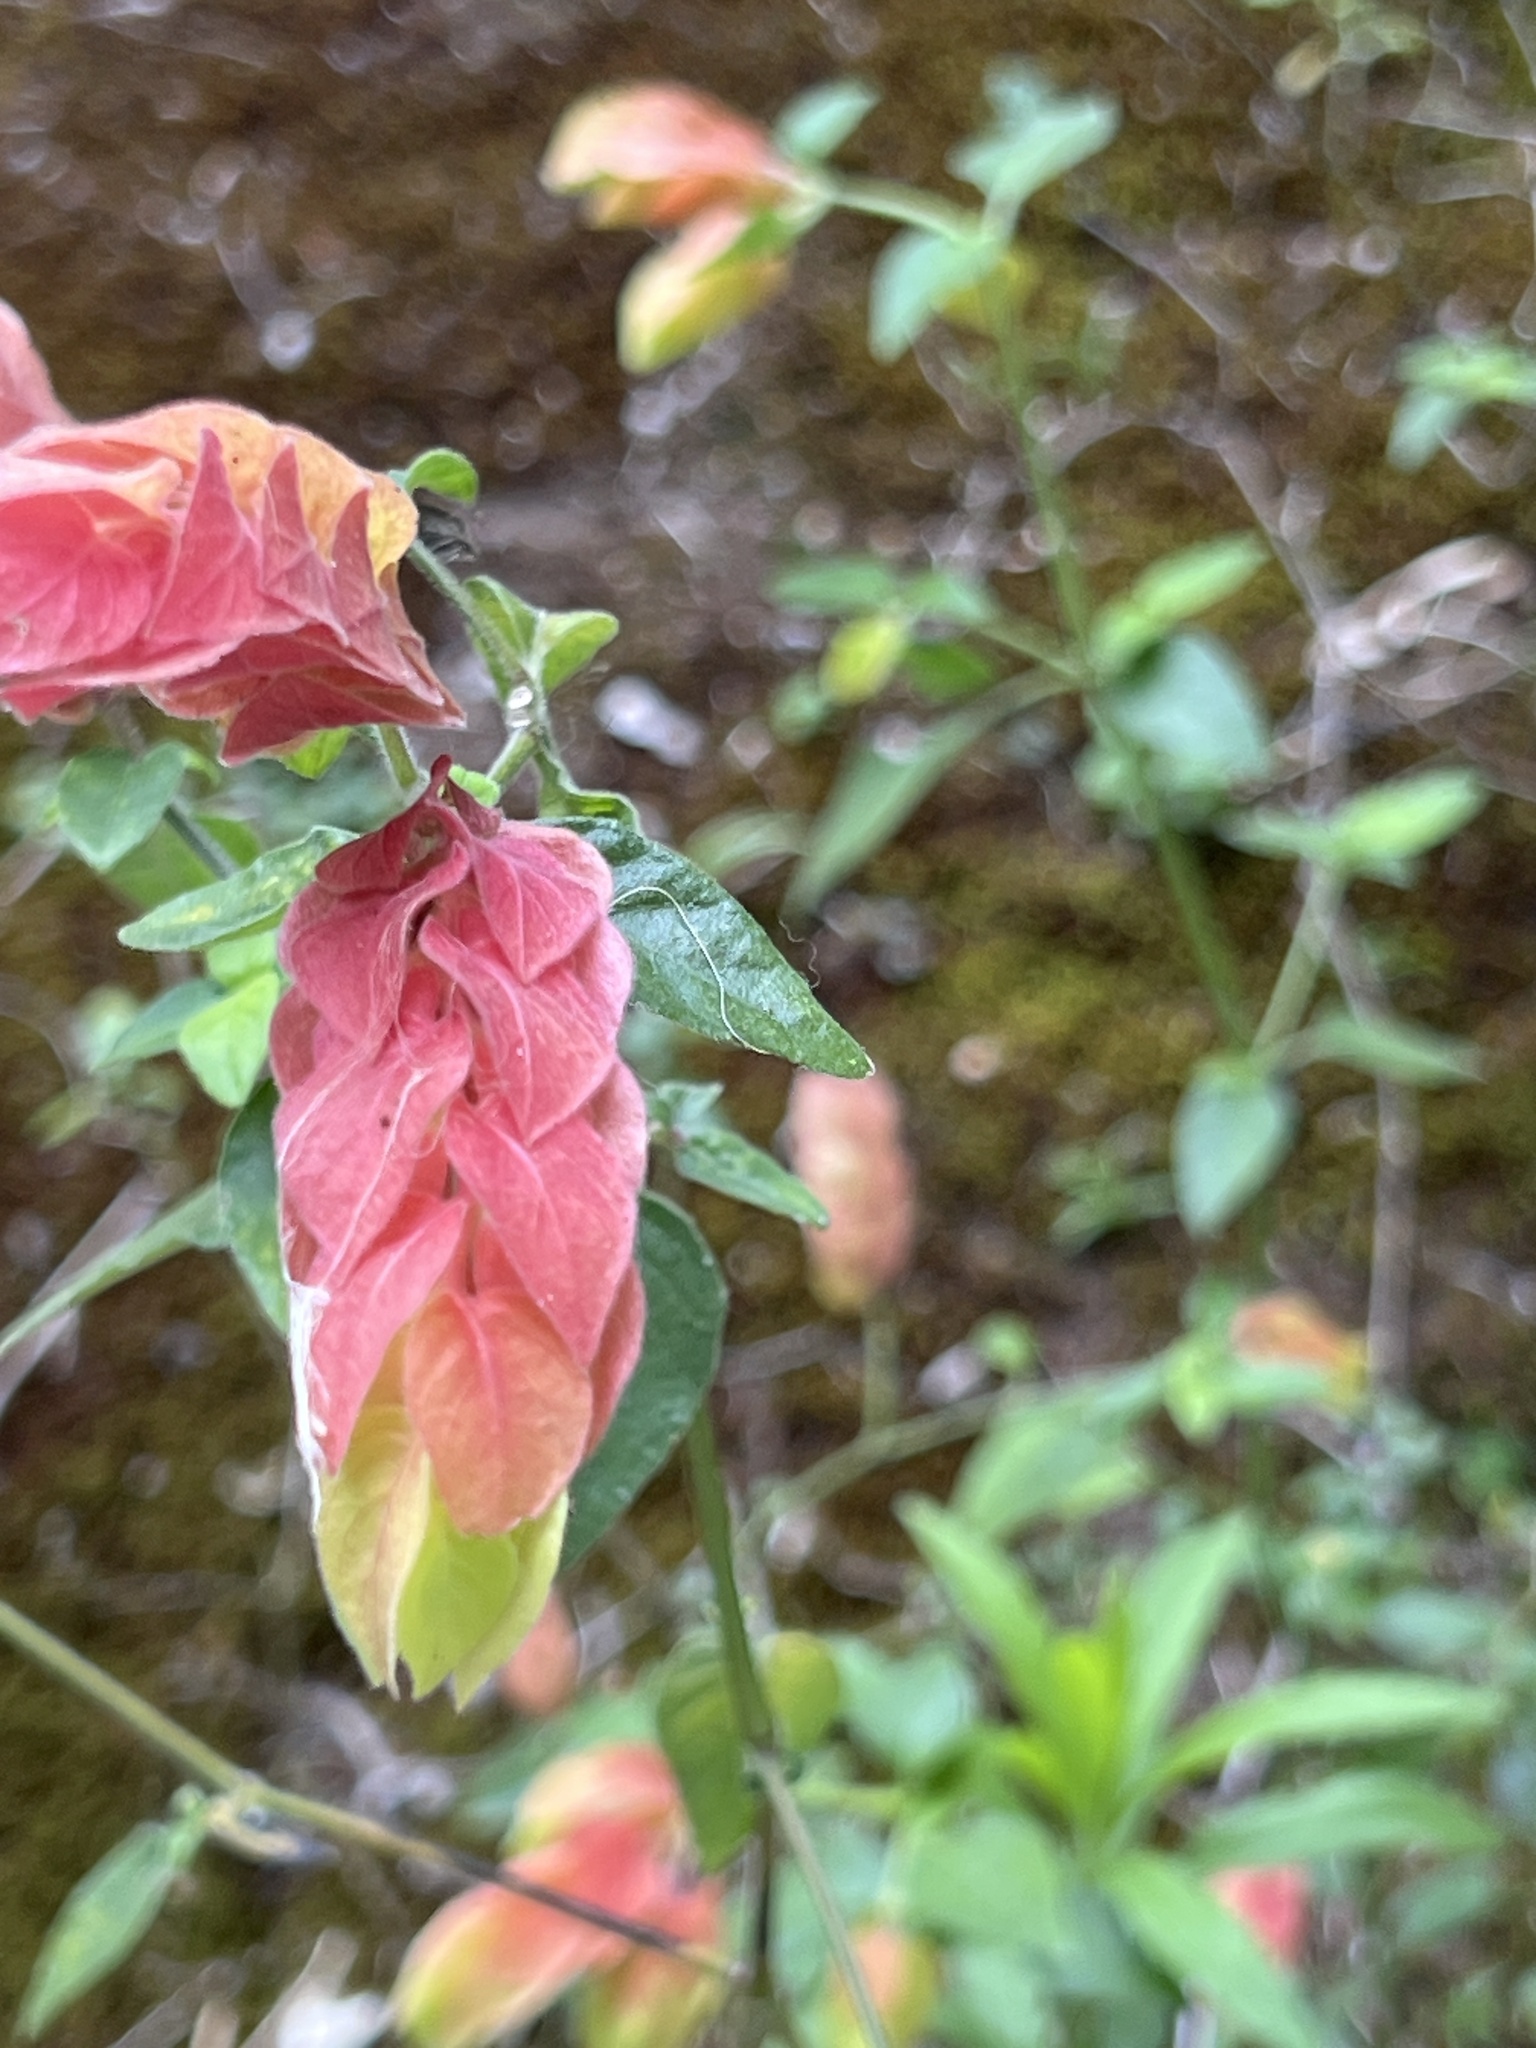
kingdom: Plantae
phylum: Tracheophyta
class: Magnoliopsida
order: Lamiales
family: Acanthaceae
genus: Justicia
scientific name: Justicia brandegeeana
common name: Shrimpplant
